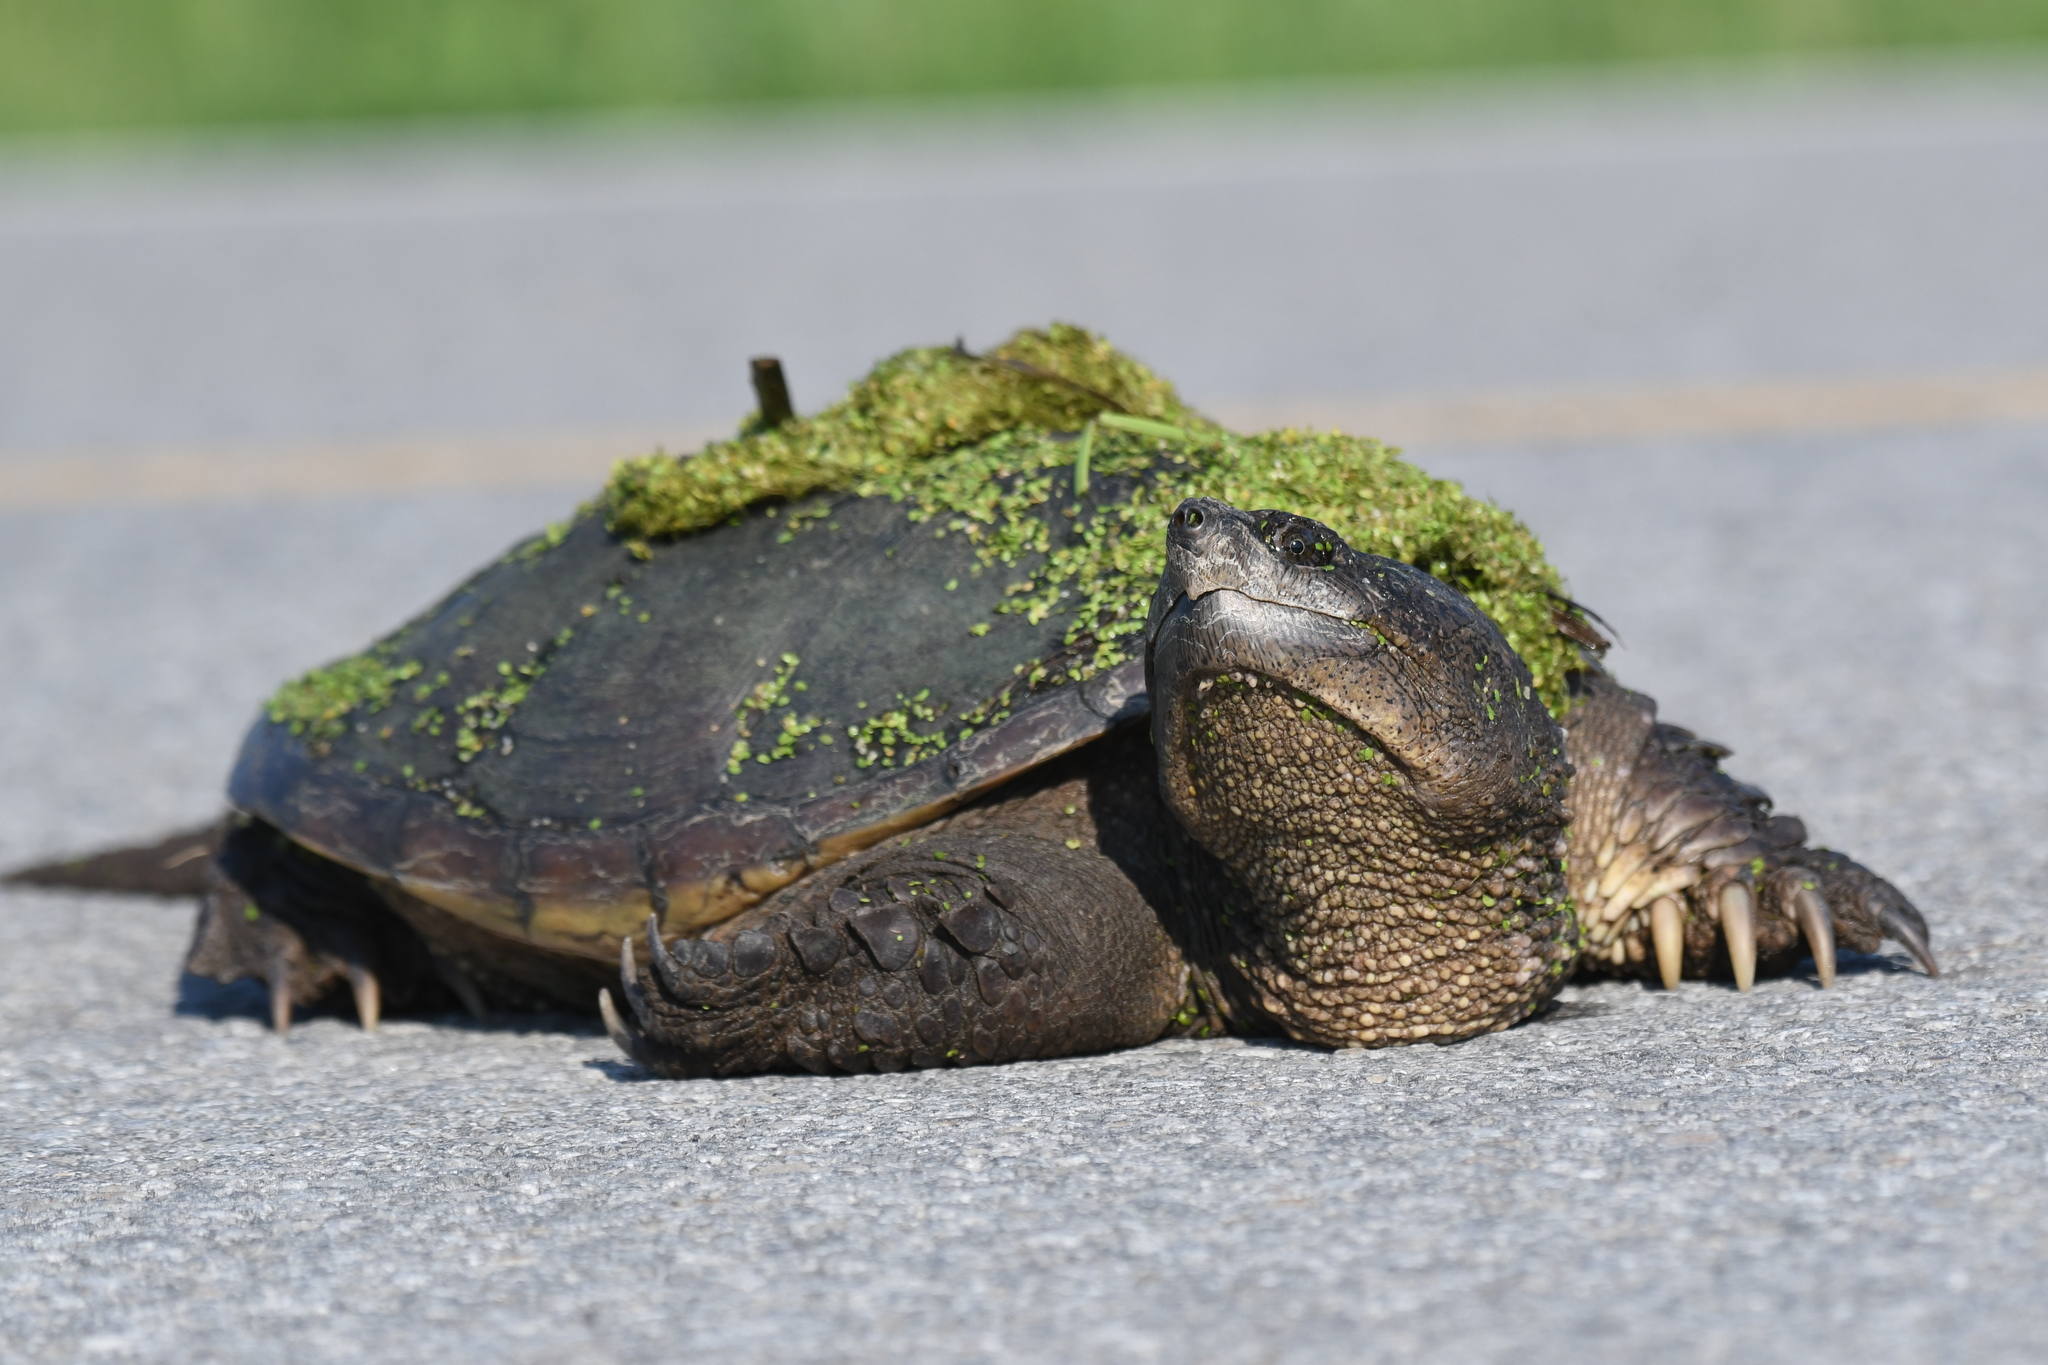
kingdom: Animalia
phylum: Chordata
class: Testudines
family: Chelydridae
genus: Chelydra
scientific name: Chelydra serpentina
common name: Common snapping turtle
